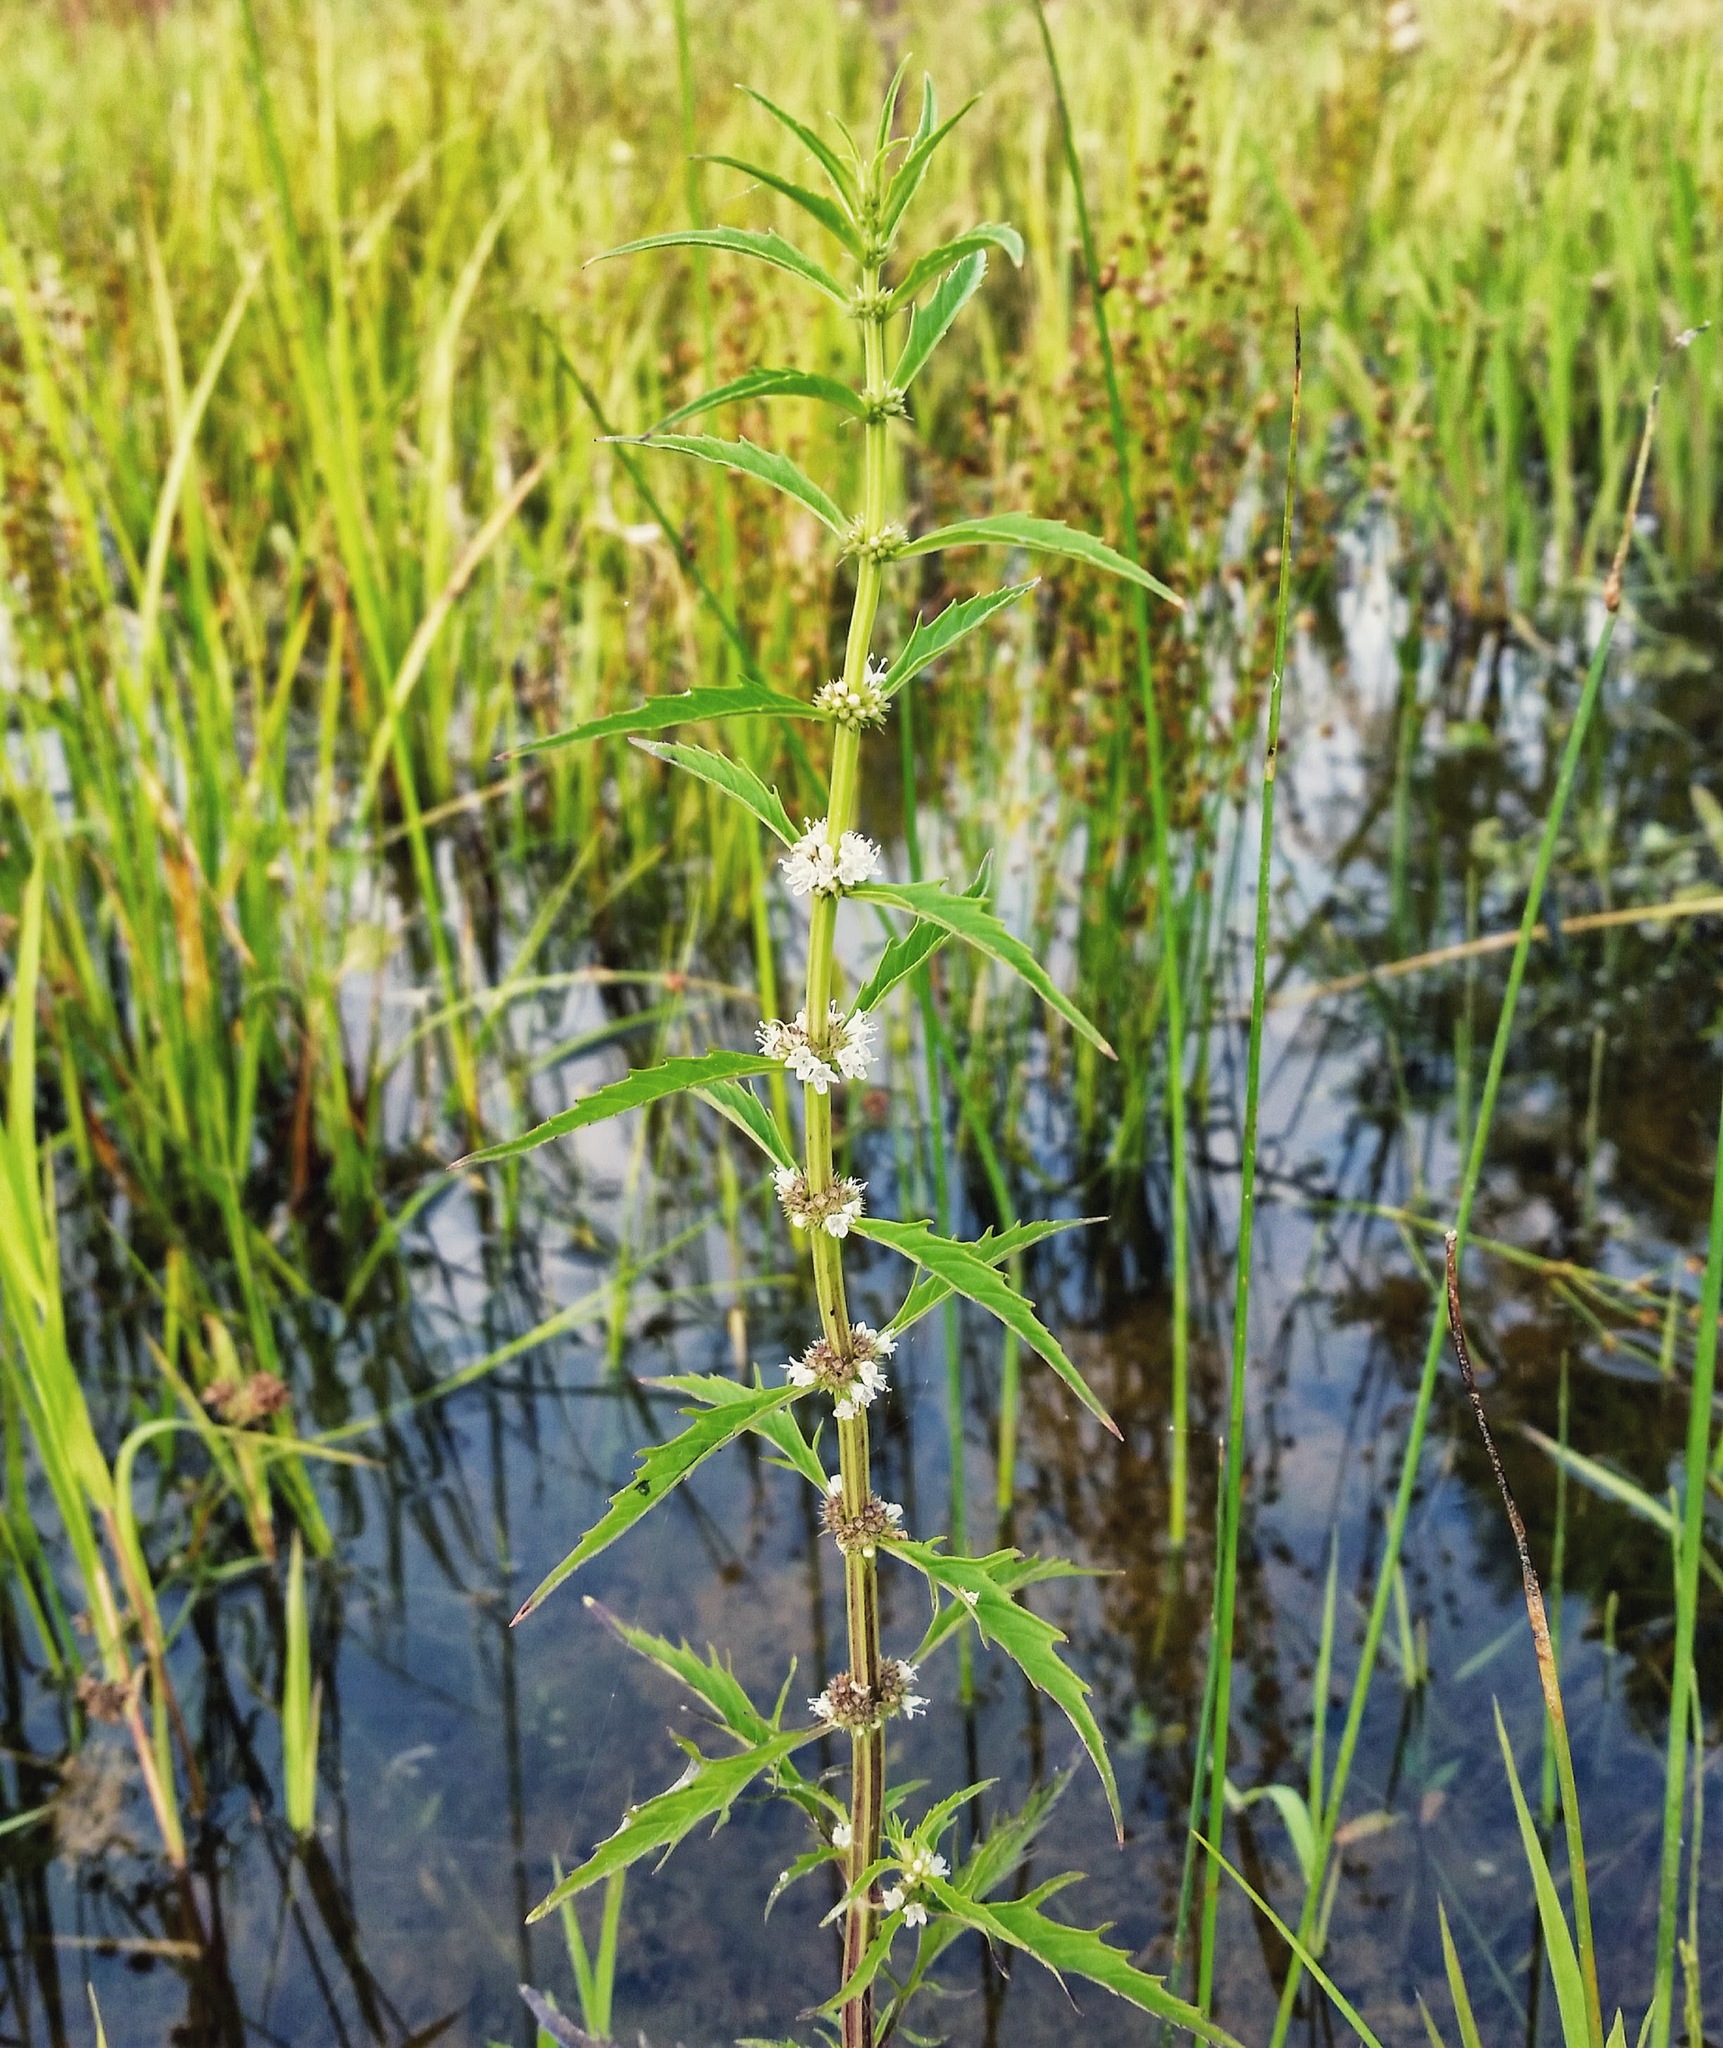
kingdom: Plantae
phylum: Tracheophyta
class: Magnoliopsida
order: Lamiales
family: Lamiaceae
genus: Lycopus
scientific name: Lycopus americanus
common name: American bugleweed
